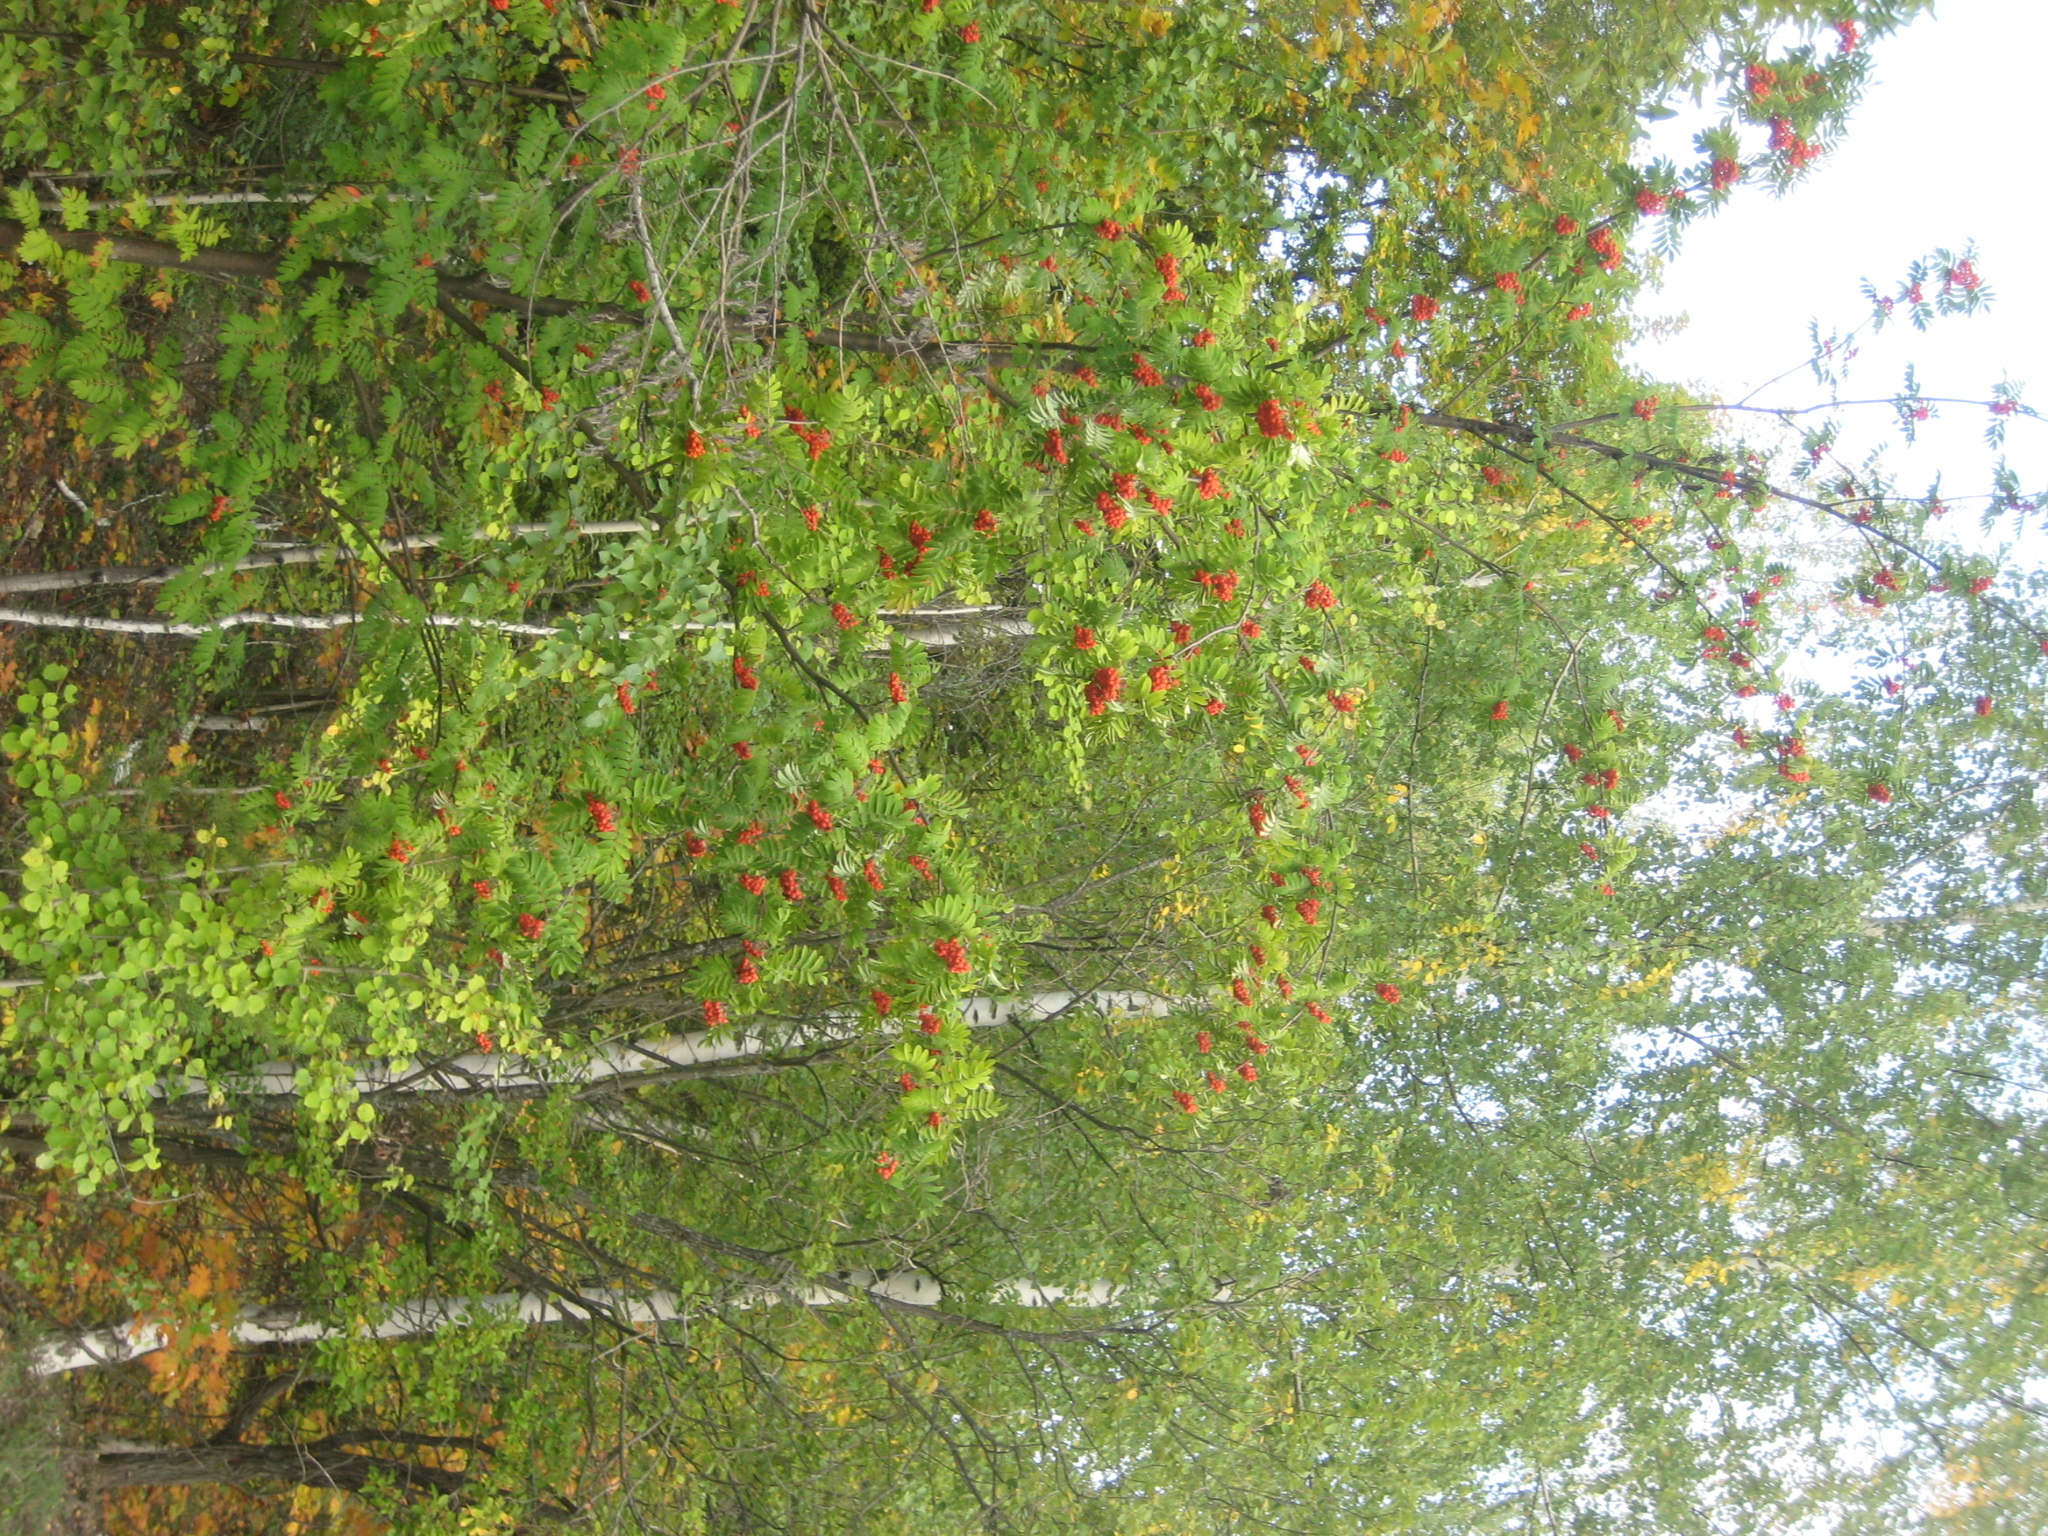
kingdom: Plantae
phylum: Tracheophyta
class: Magnoliopsida
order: Rosales
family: Rosaceae
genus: Sorbus
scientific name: Sorbus aucuparia
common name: Rowan
